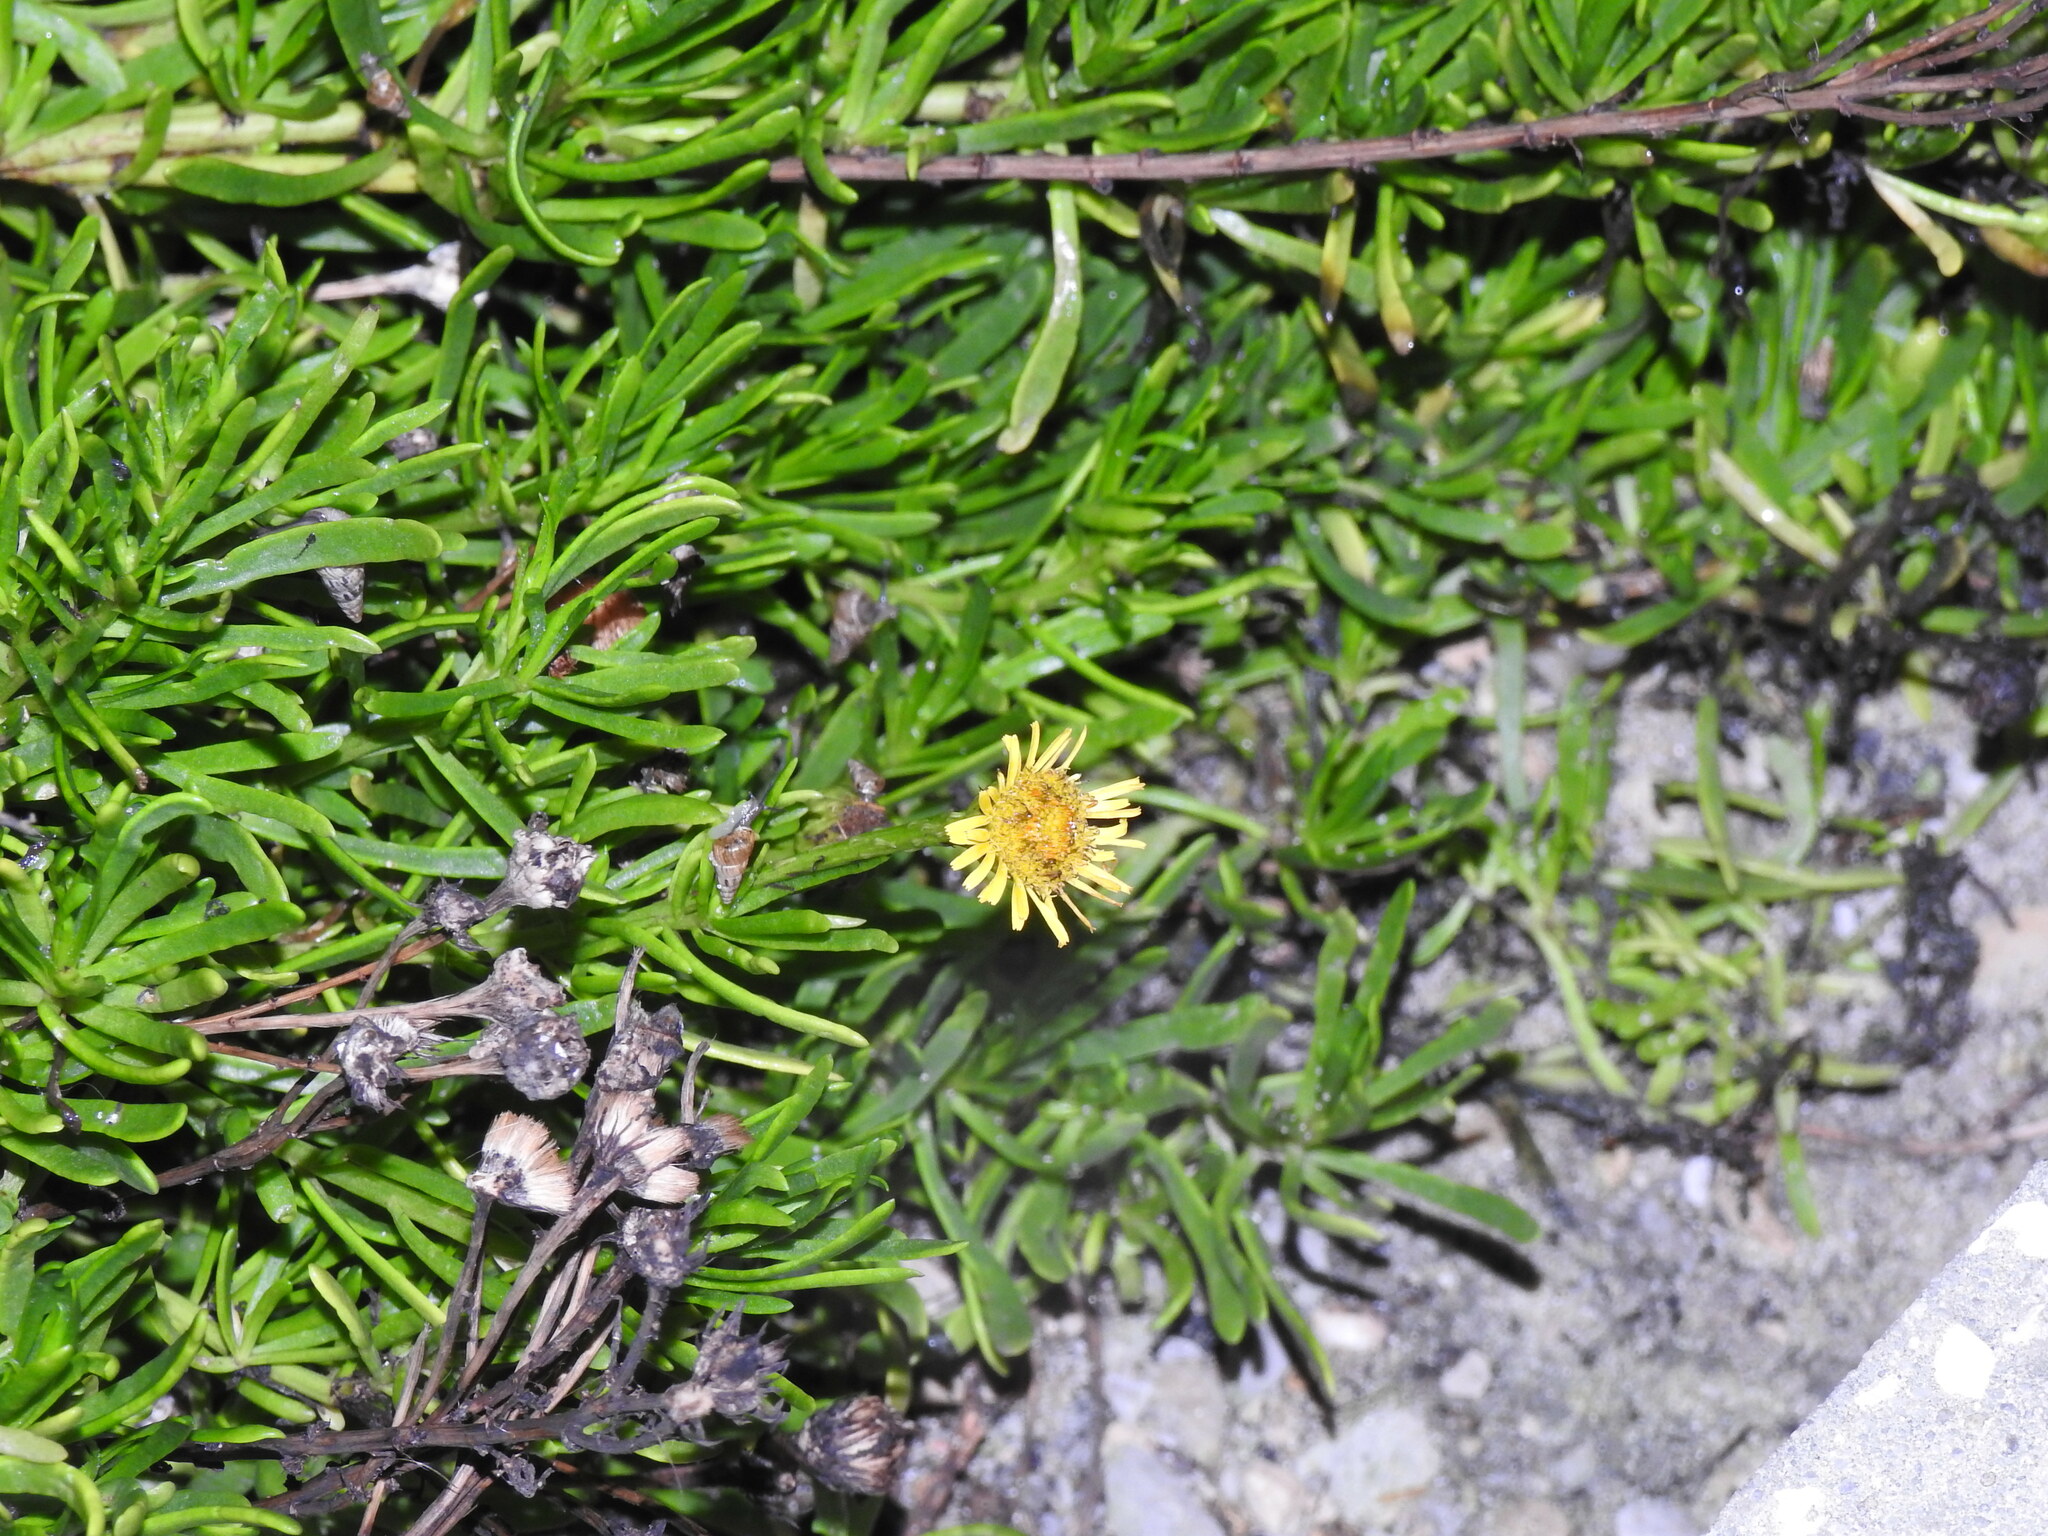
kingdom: Plantae
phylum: Tracheophyta
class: Magnoliopsida
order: Asterales
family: Asteraceae
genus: Limbarda
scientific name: Limbarda crithmoides
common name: Golden samphire
